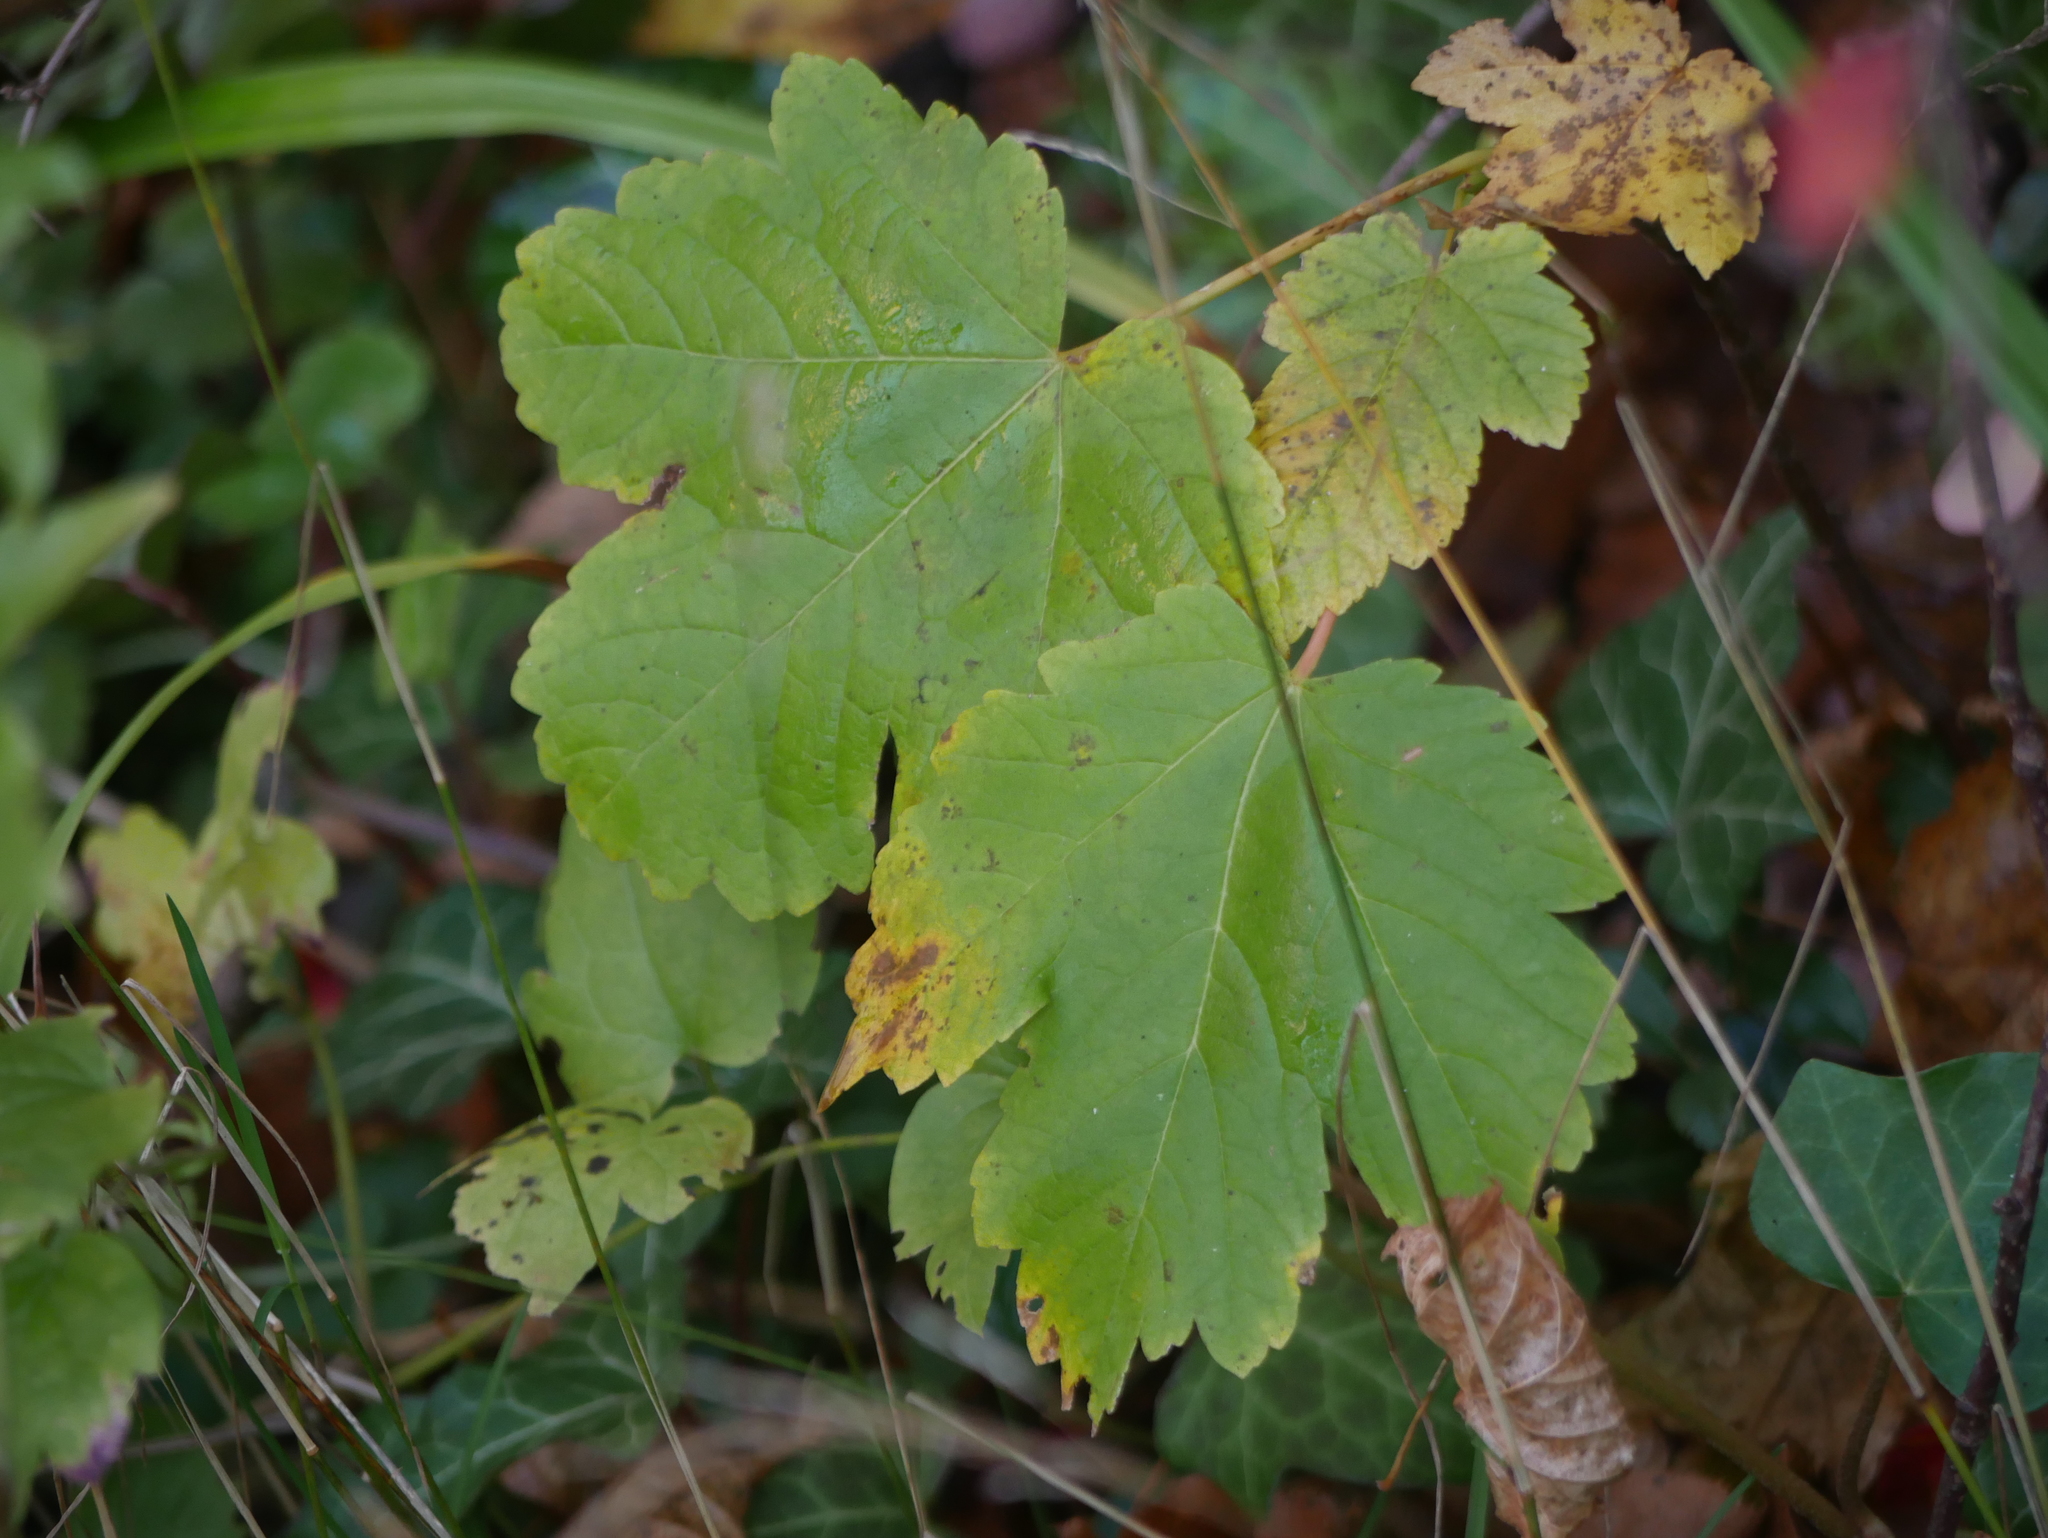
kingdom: Plantae
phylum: Tracheophyta
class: Magnoliopsida
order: Sapindales
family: Sapindaceae
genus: Acer
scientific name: Acer pseudoplatanus
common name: Sycamore
